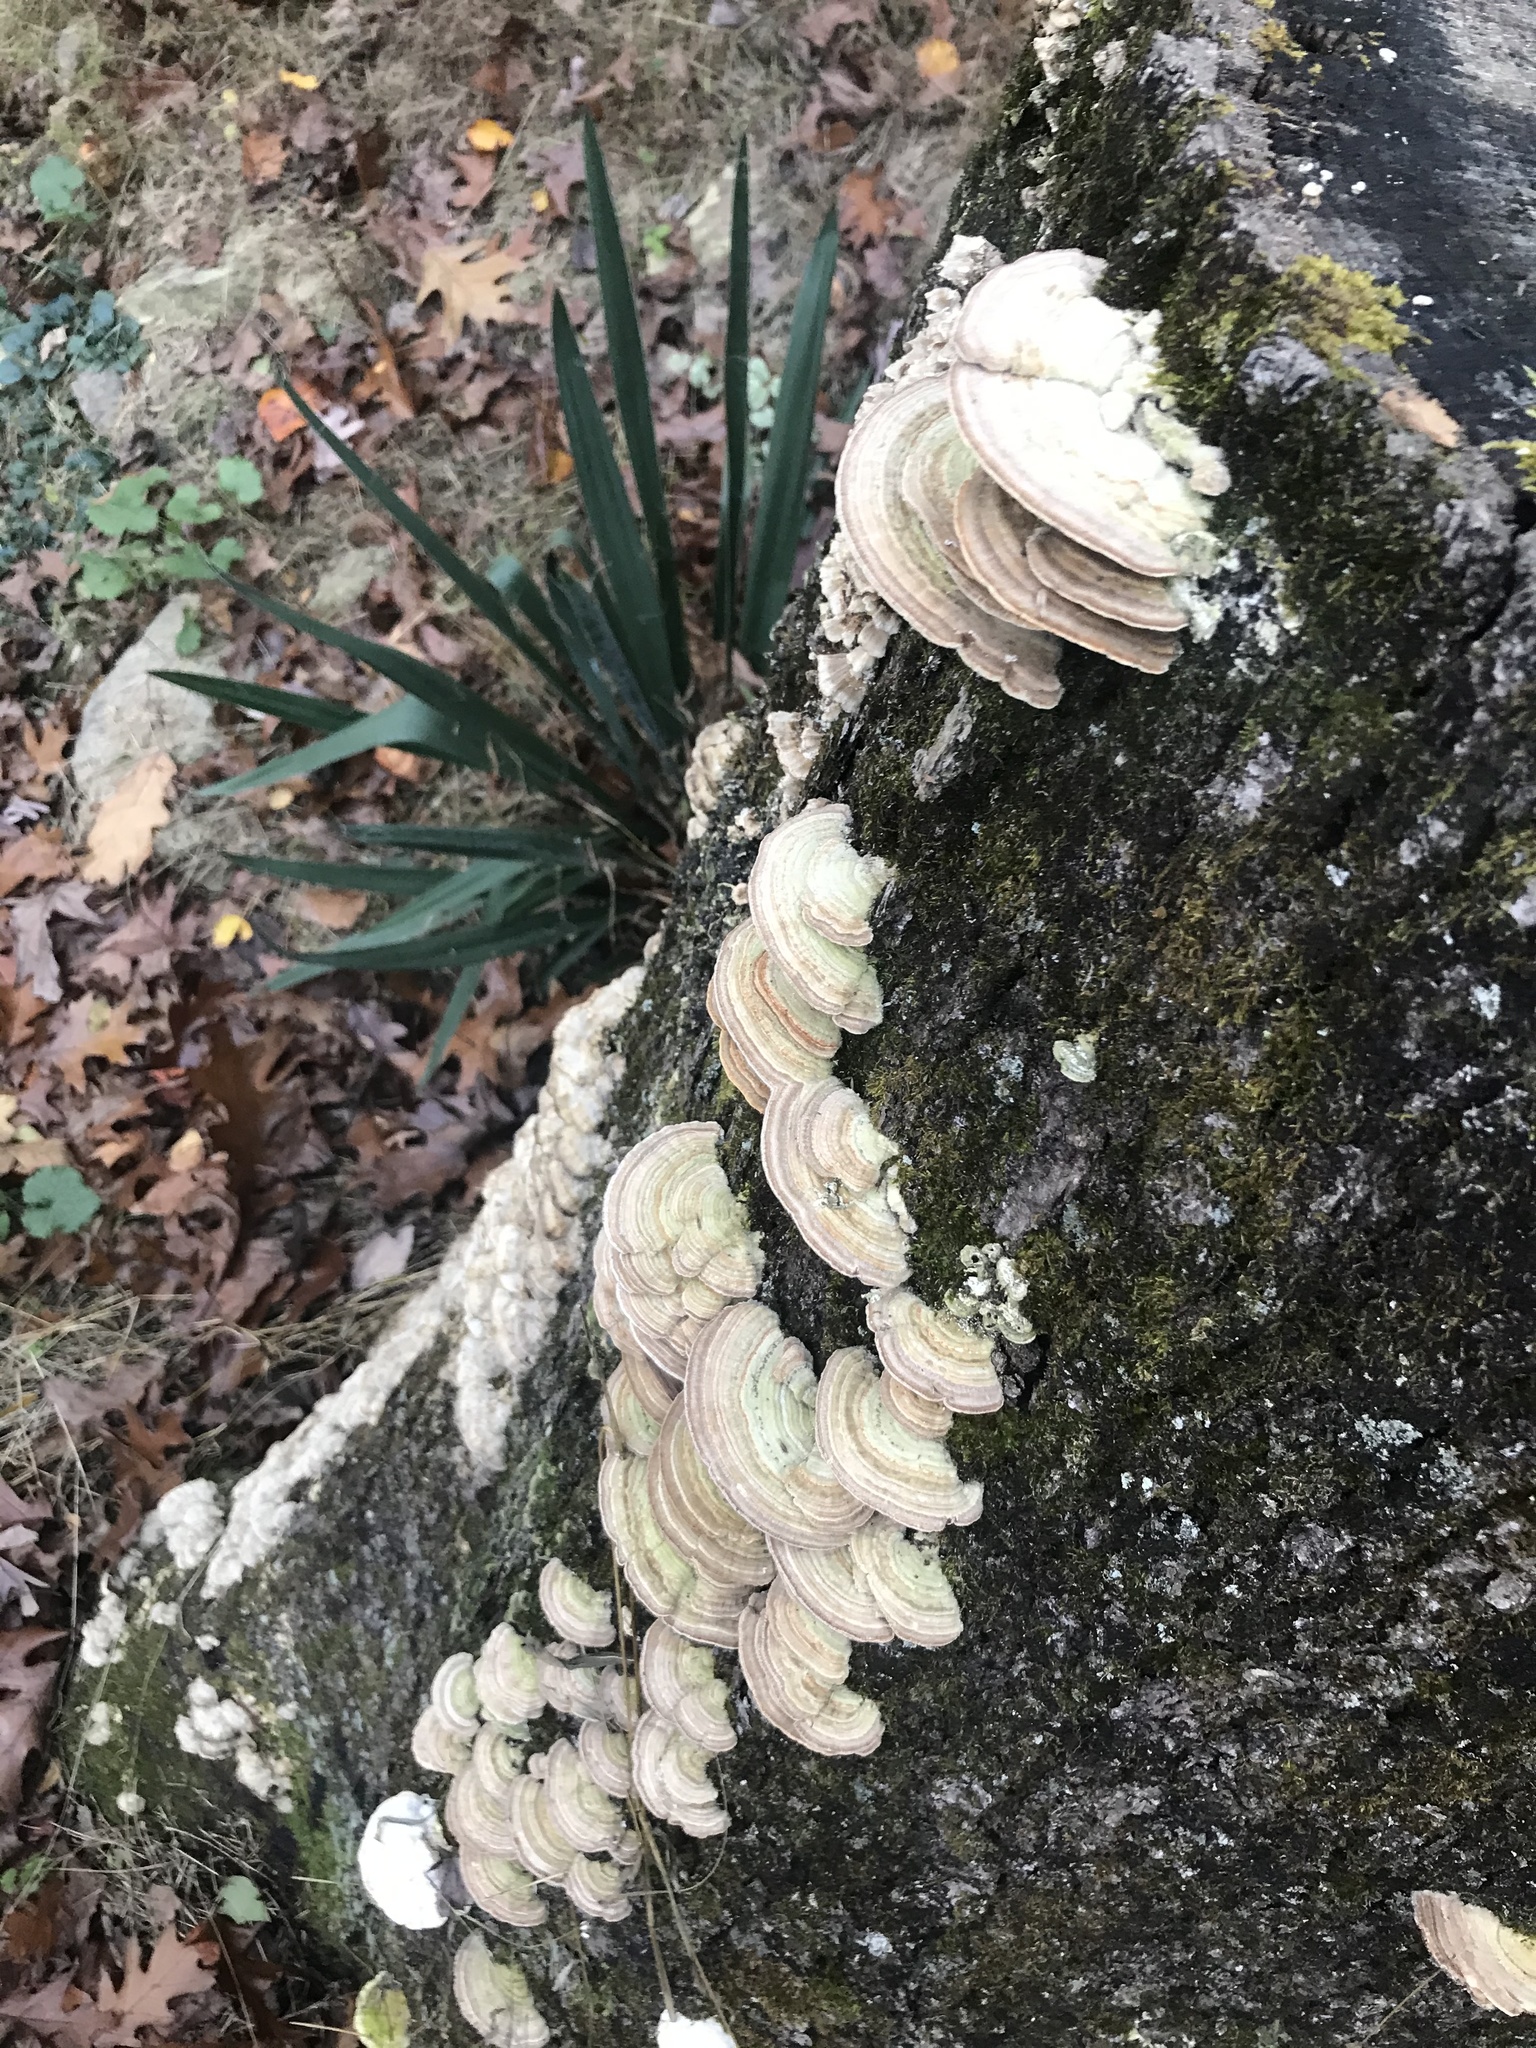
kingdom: Fungi
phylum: Basidiomycota
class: Agaricomycetes
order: Polyporales
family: Polyporaceae
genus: Lenzites
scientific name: Lenzites betulinus
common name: Birch mazegill
